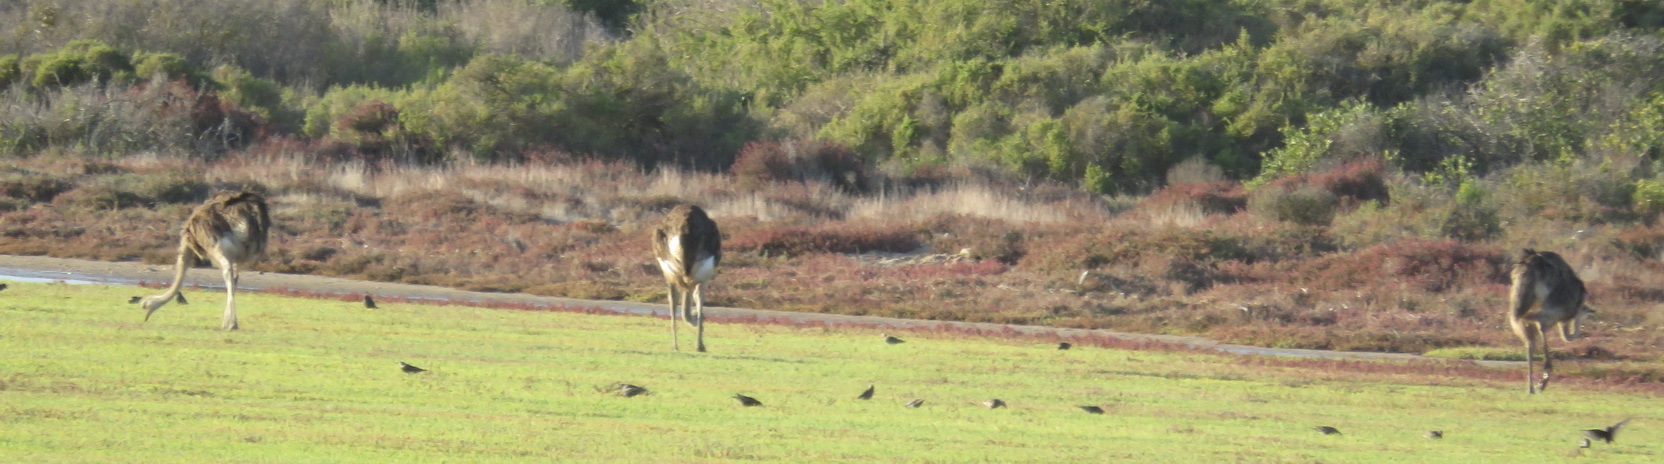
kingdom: Animalia
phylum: Chordata
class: Aves
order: Struthioniformes
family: Struthionidae
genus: Struthio
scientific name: Struthio camelus
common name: Common ostrich
